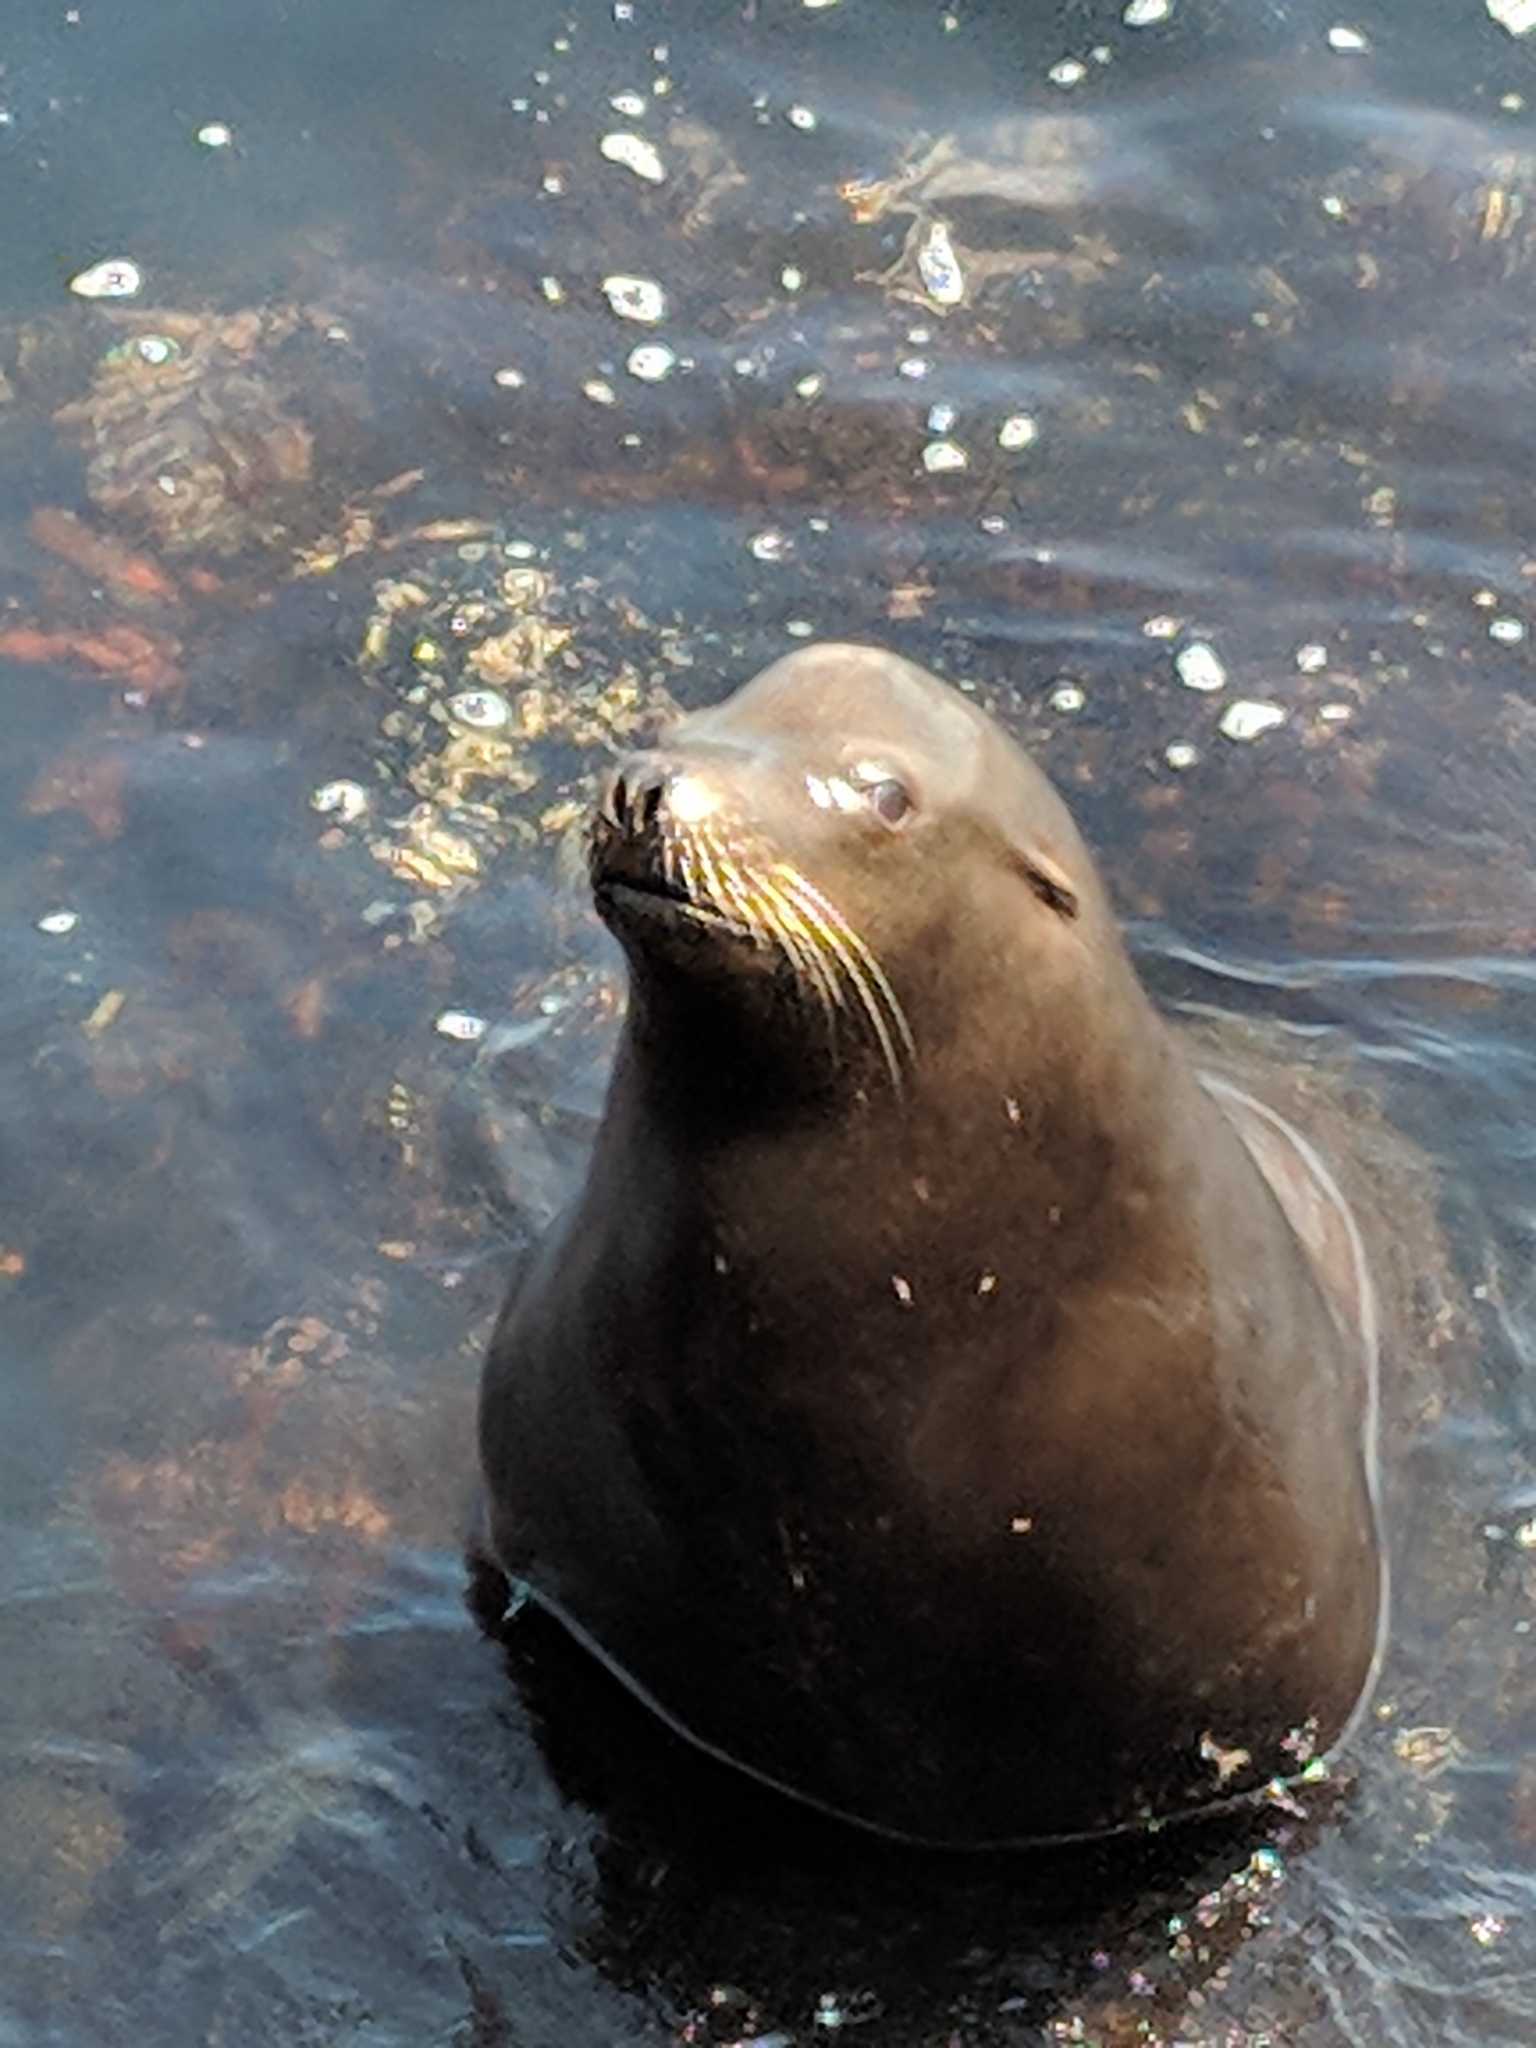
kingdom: Animalia
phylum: Chordata
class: Mammalia
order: Carnivora
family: Otariidae
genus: Zalophus
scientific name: Zalophus californianus
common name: California sea lion
